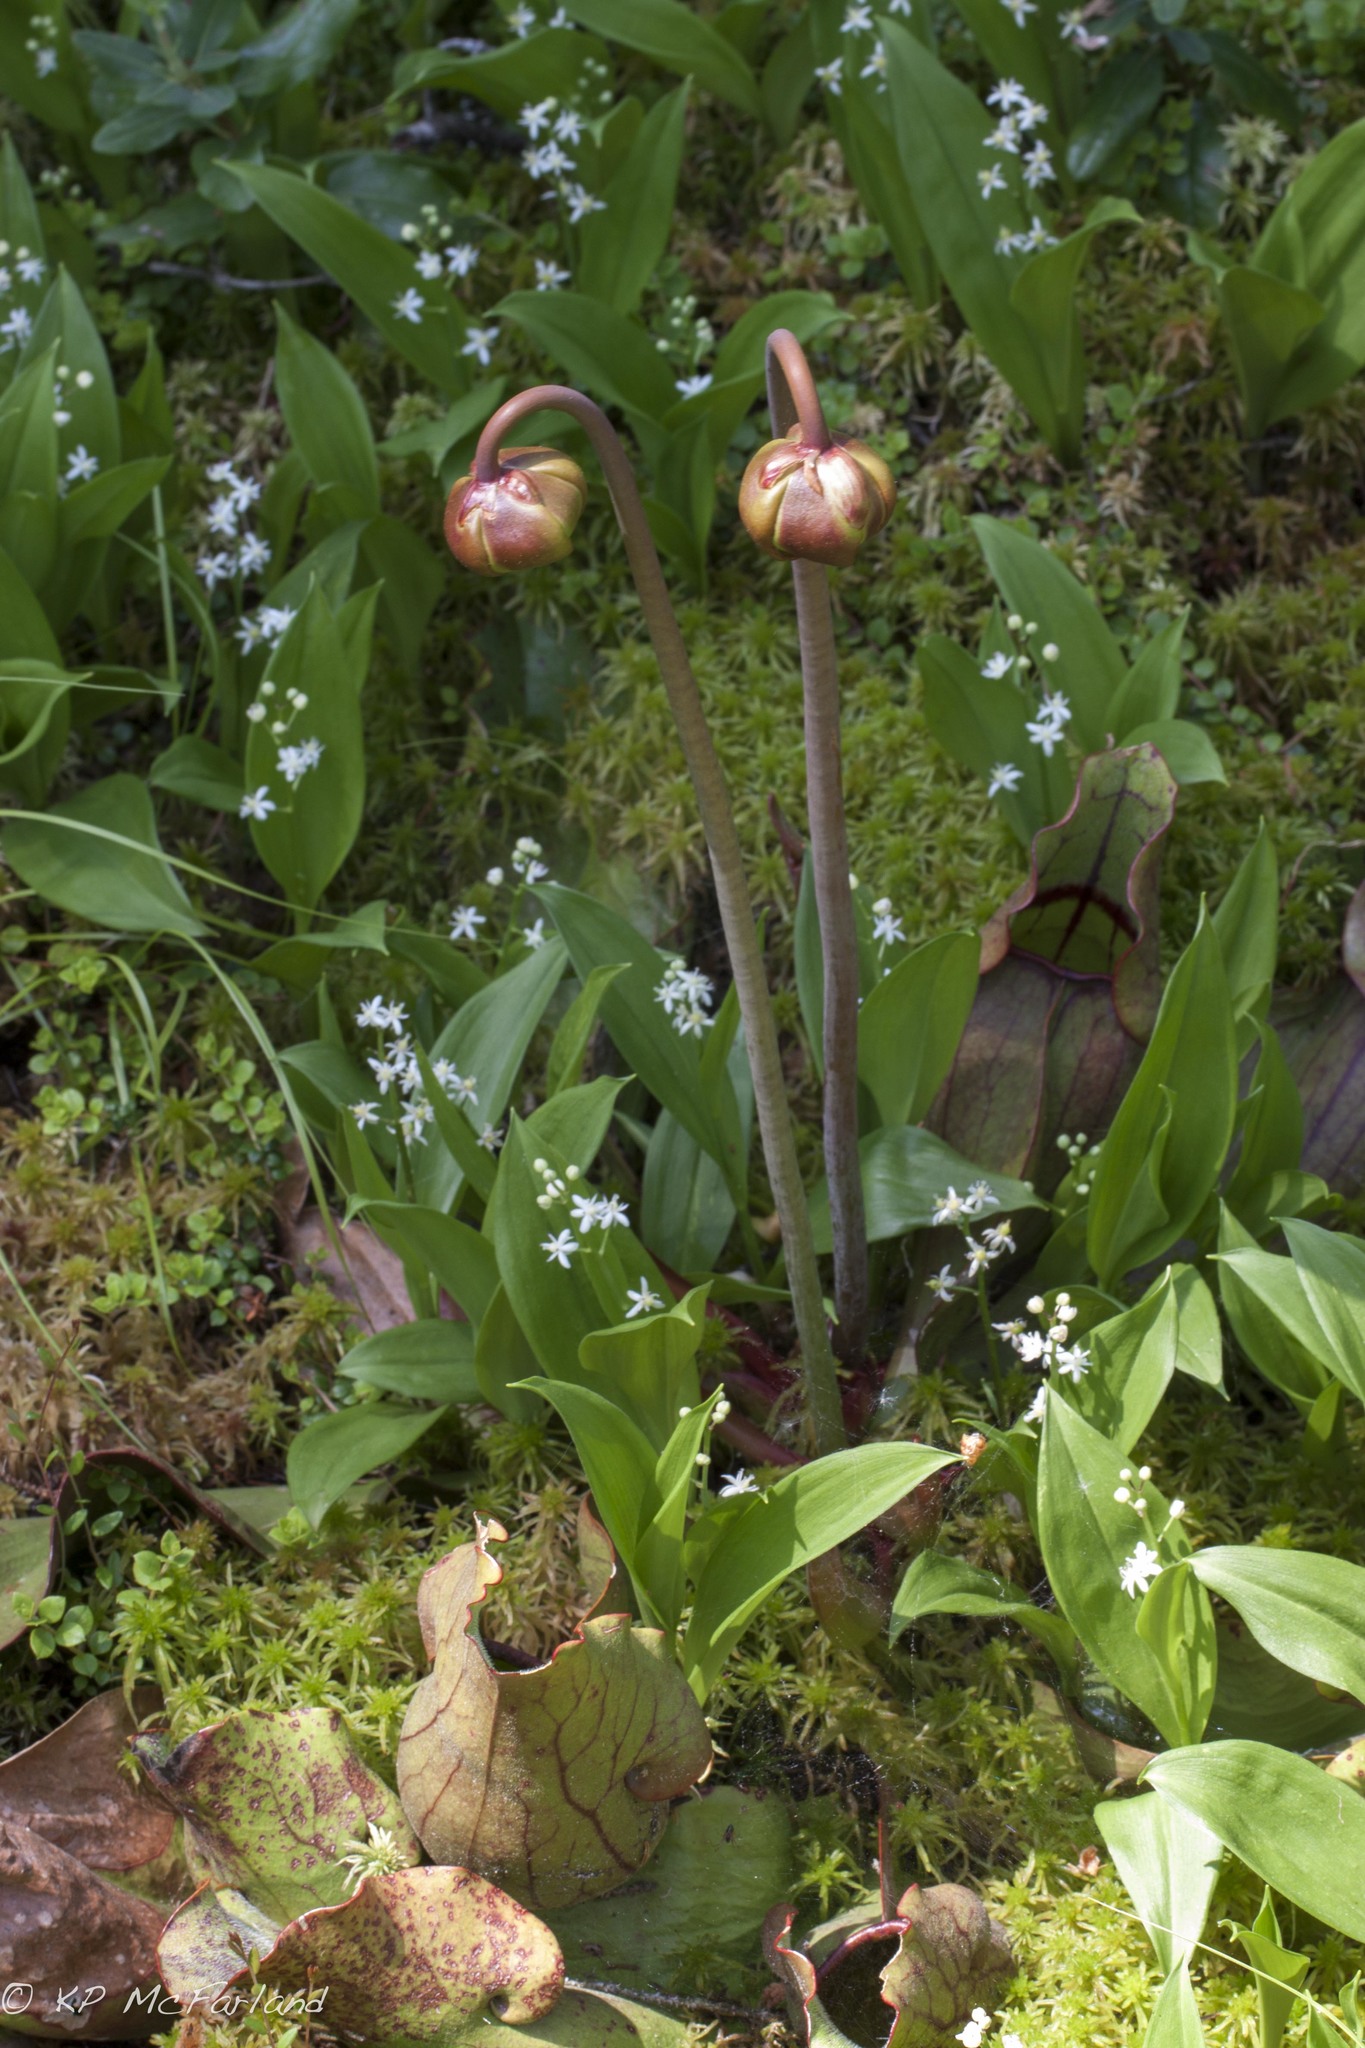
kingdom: Plantae
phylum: Tracheophyta
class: Liliopsida
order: Asparagales
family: Asparagaceae
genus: Maianthemum
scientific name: Maianthemum trifolium
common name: Swamp false solomon's seal
